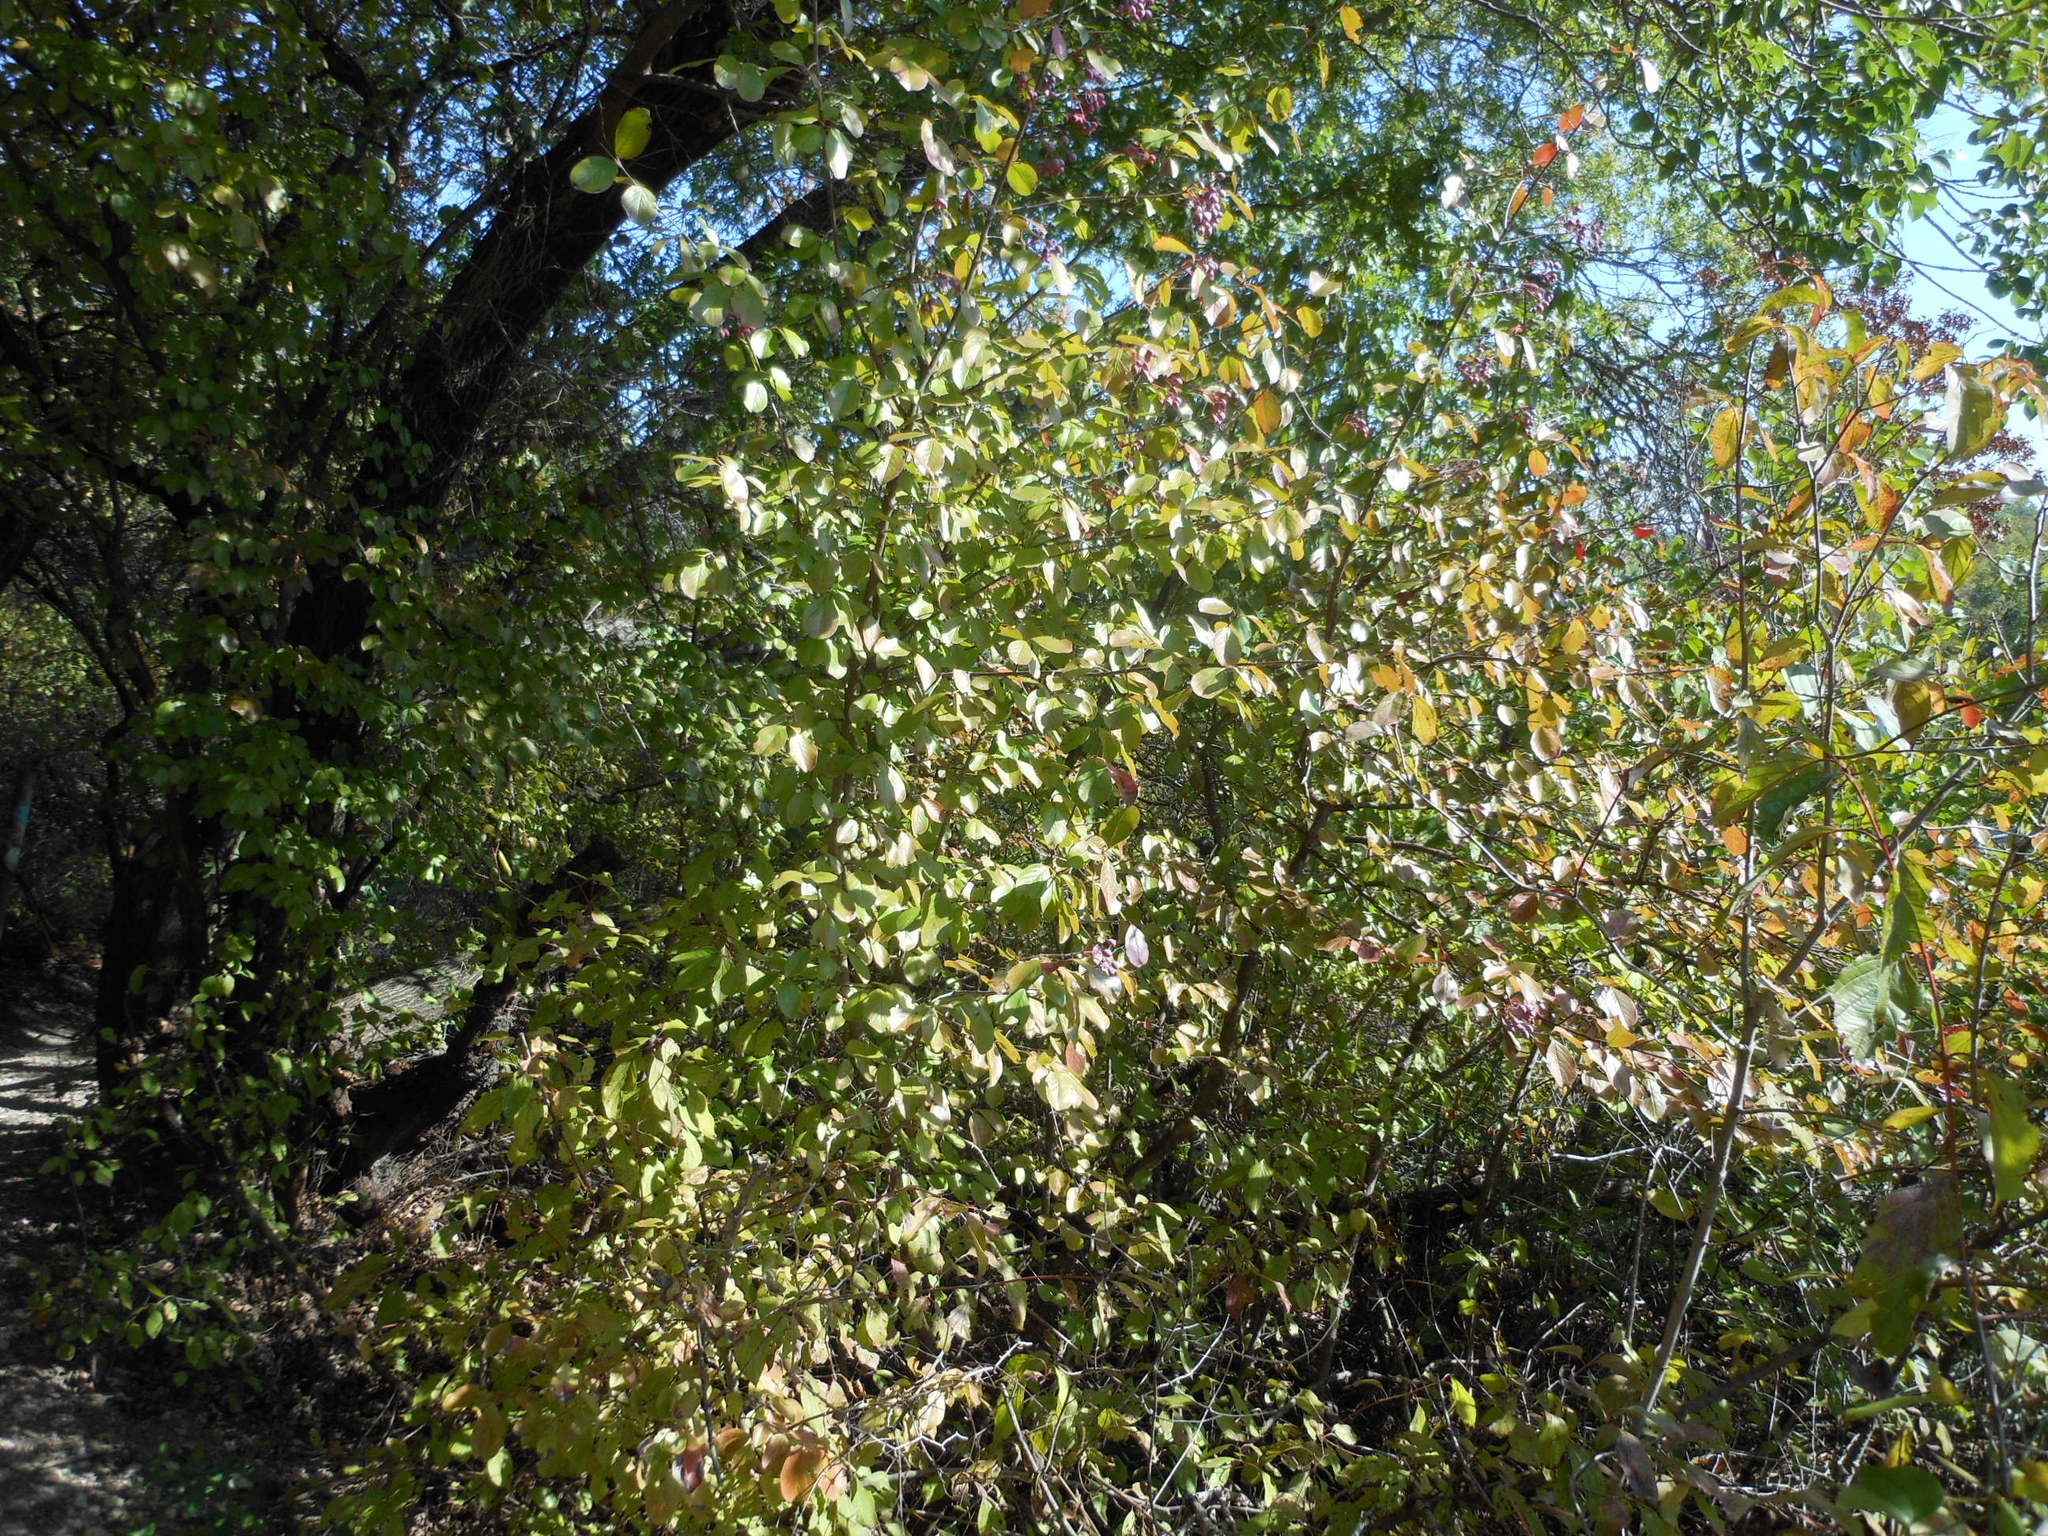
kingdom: Plantae
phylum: Tracheophyta
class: Magnoliopsida
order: Dipsacales
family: Viburnaceae
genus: Viburnum
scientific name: Viburnum rufidulum
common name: Blue haw
